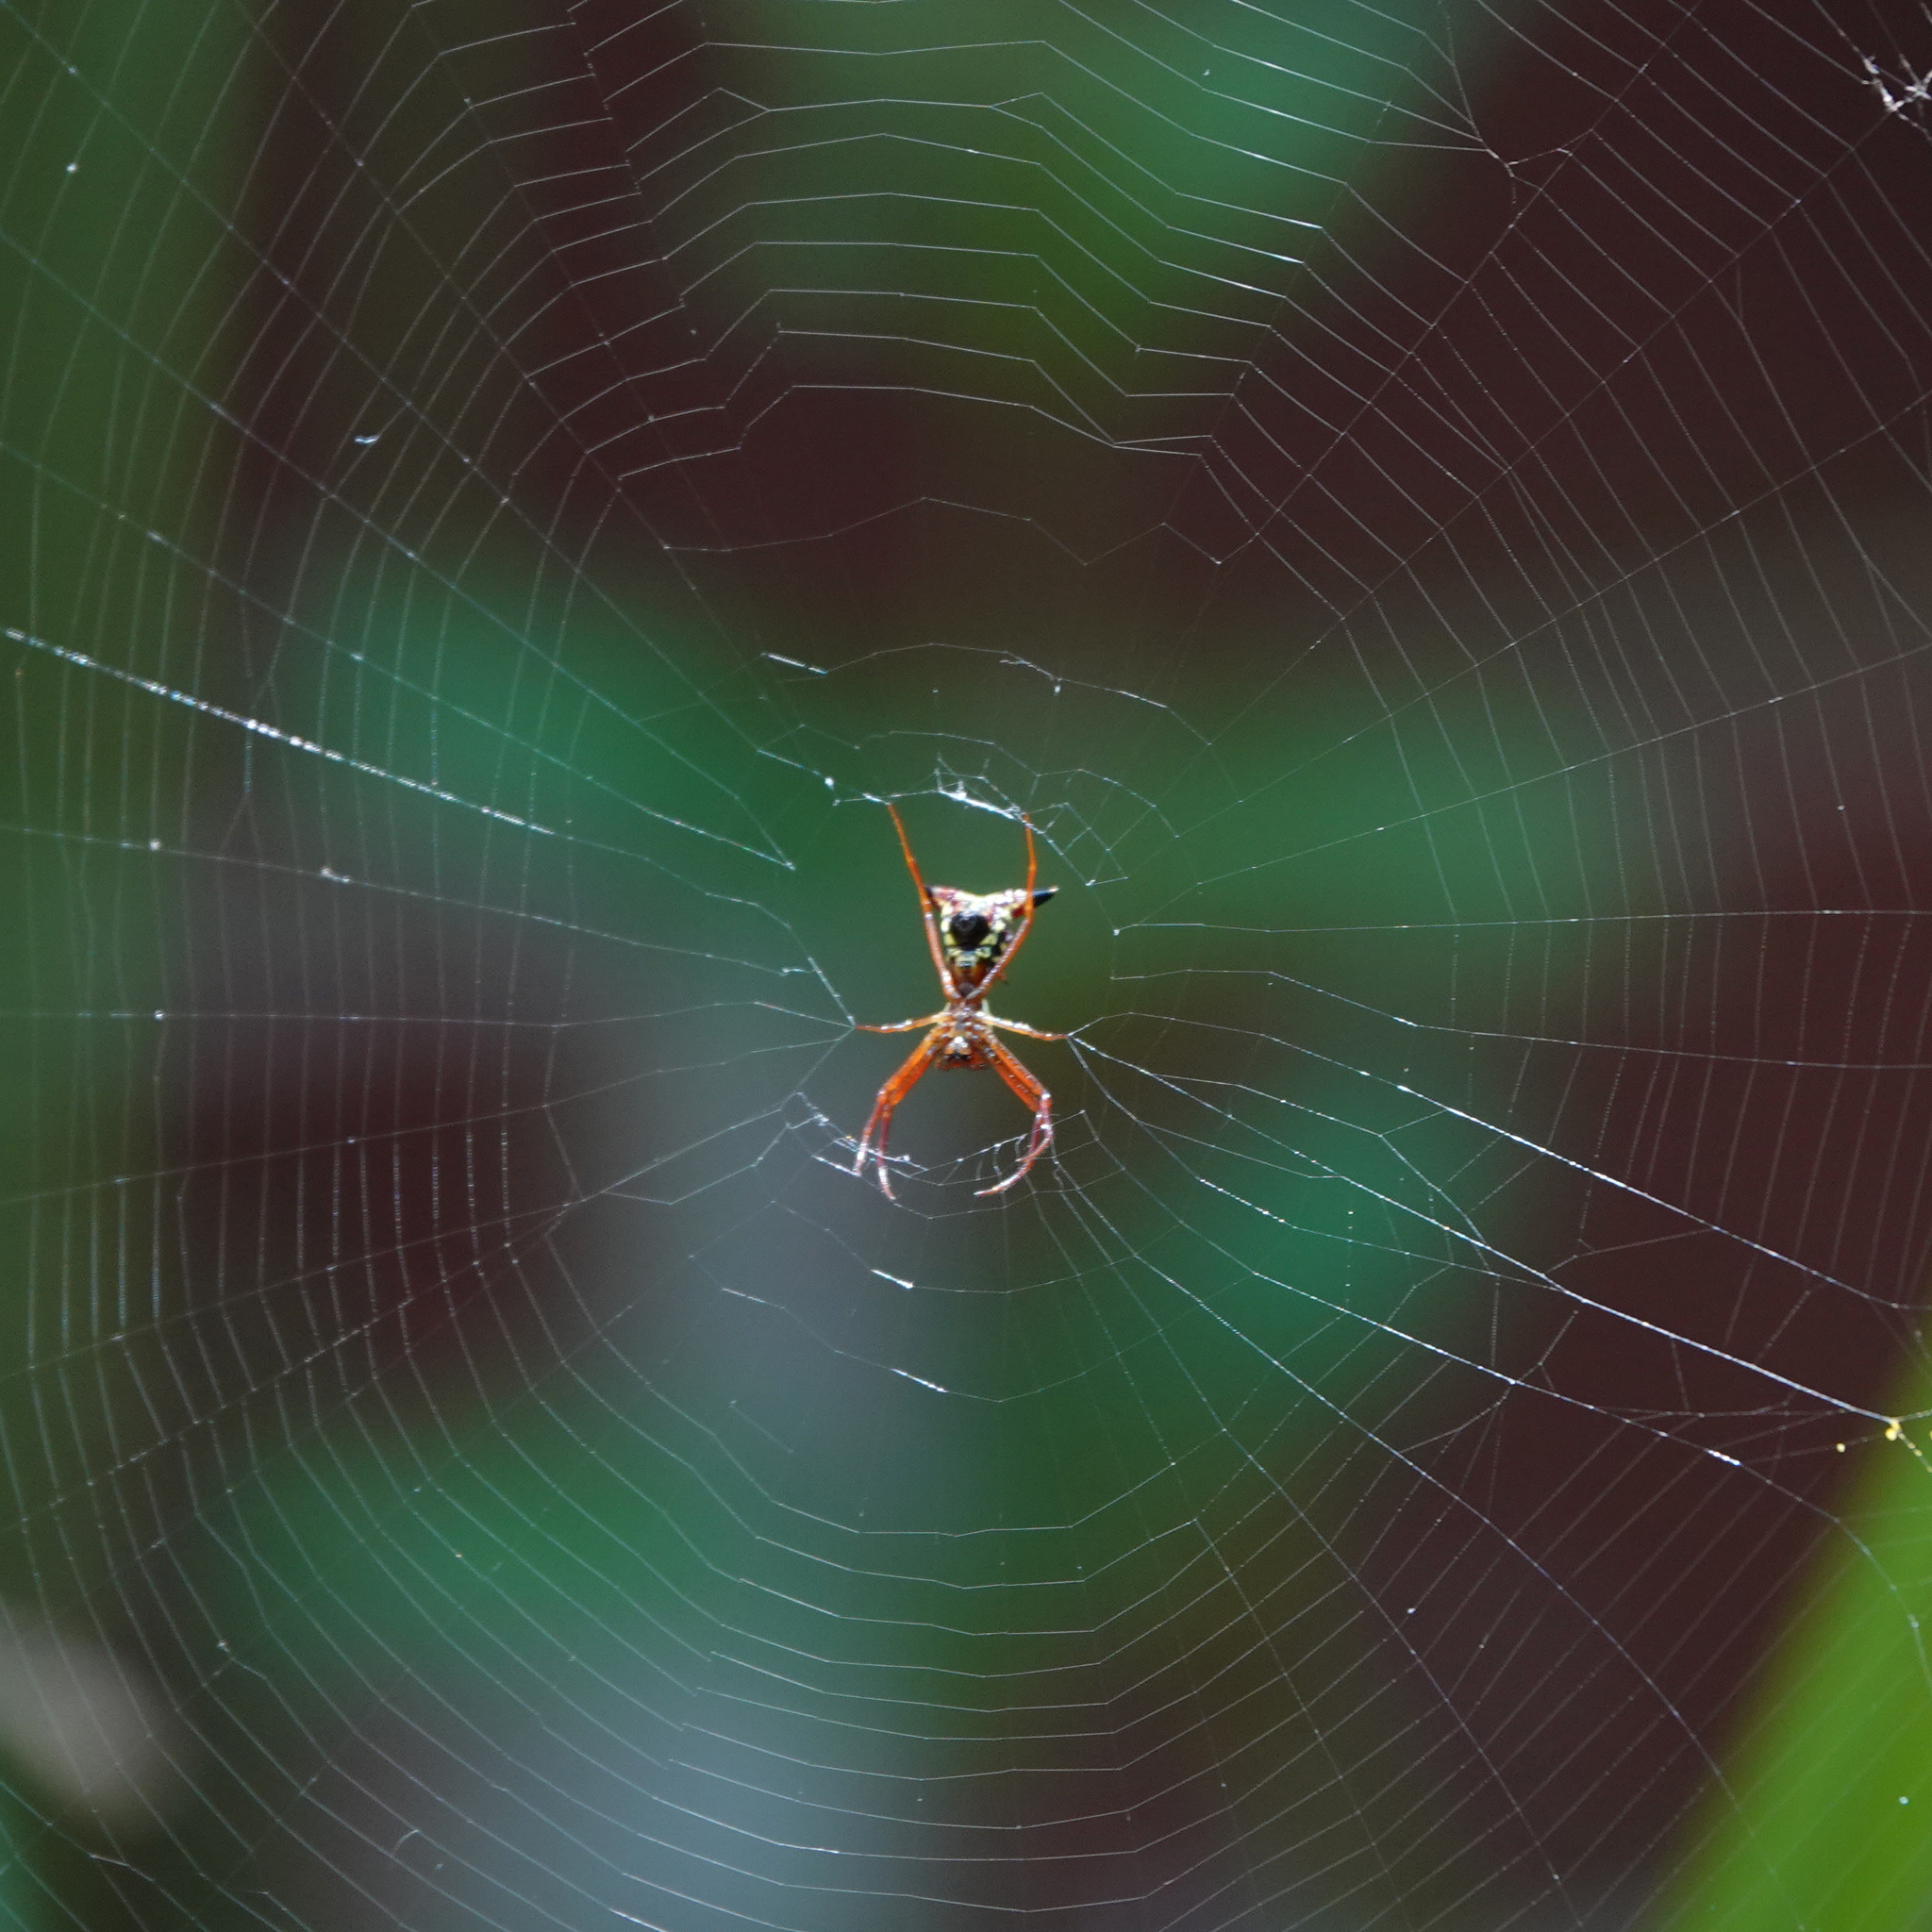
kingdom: Animalia
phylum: Arthropoda
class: Arachnida
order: Araneae
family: Araneidae
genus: Micrathena
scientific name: Micrathena sagittata
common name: Orb weavers
